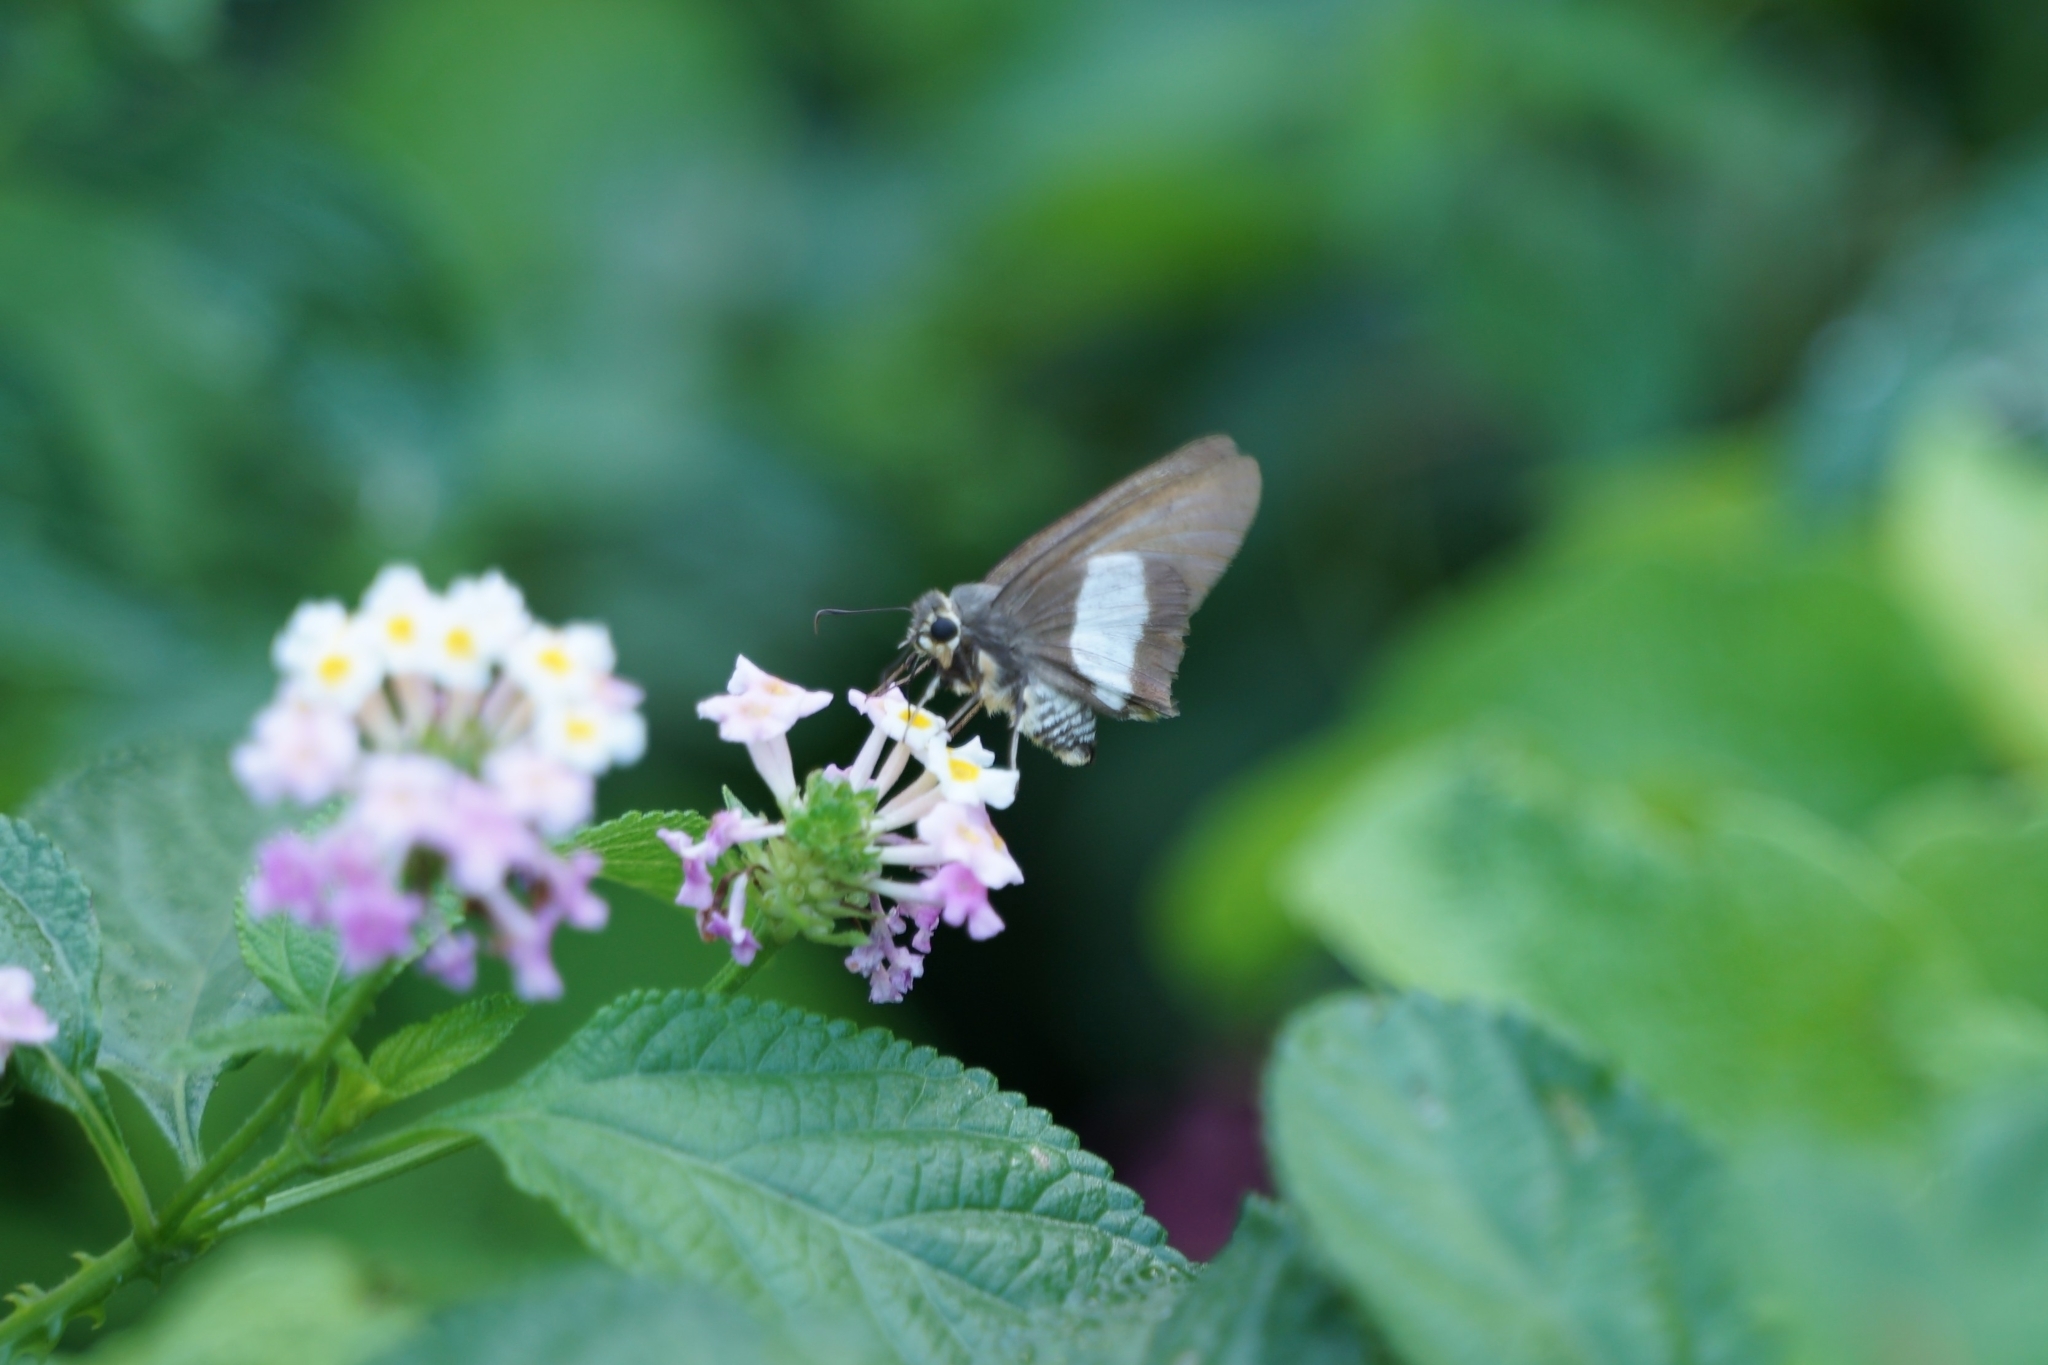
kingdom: Animalia
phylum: Arthropoda
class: Insecta
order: Lepidoptera
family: Hesperiidae
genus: Coeliades
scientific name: Coeliades forestan
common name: Striped policeman
